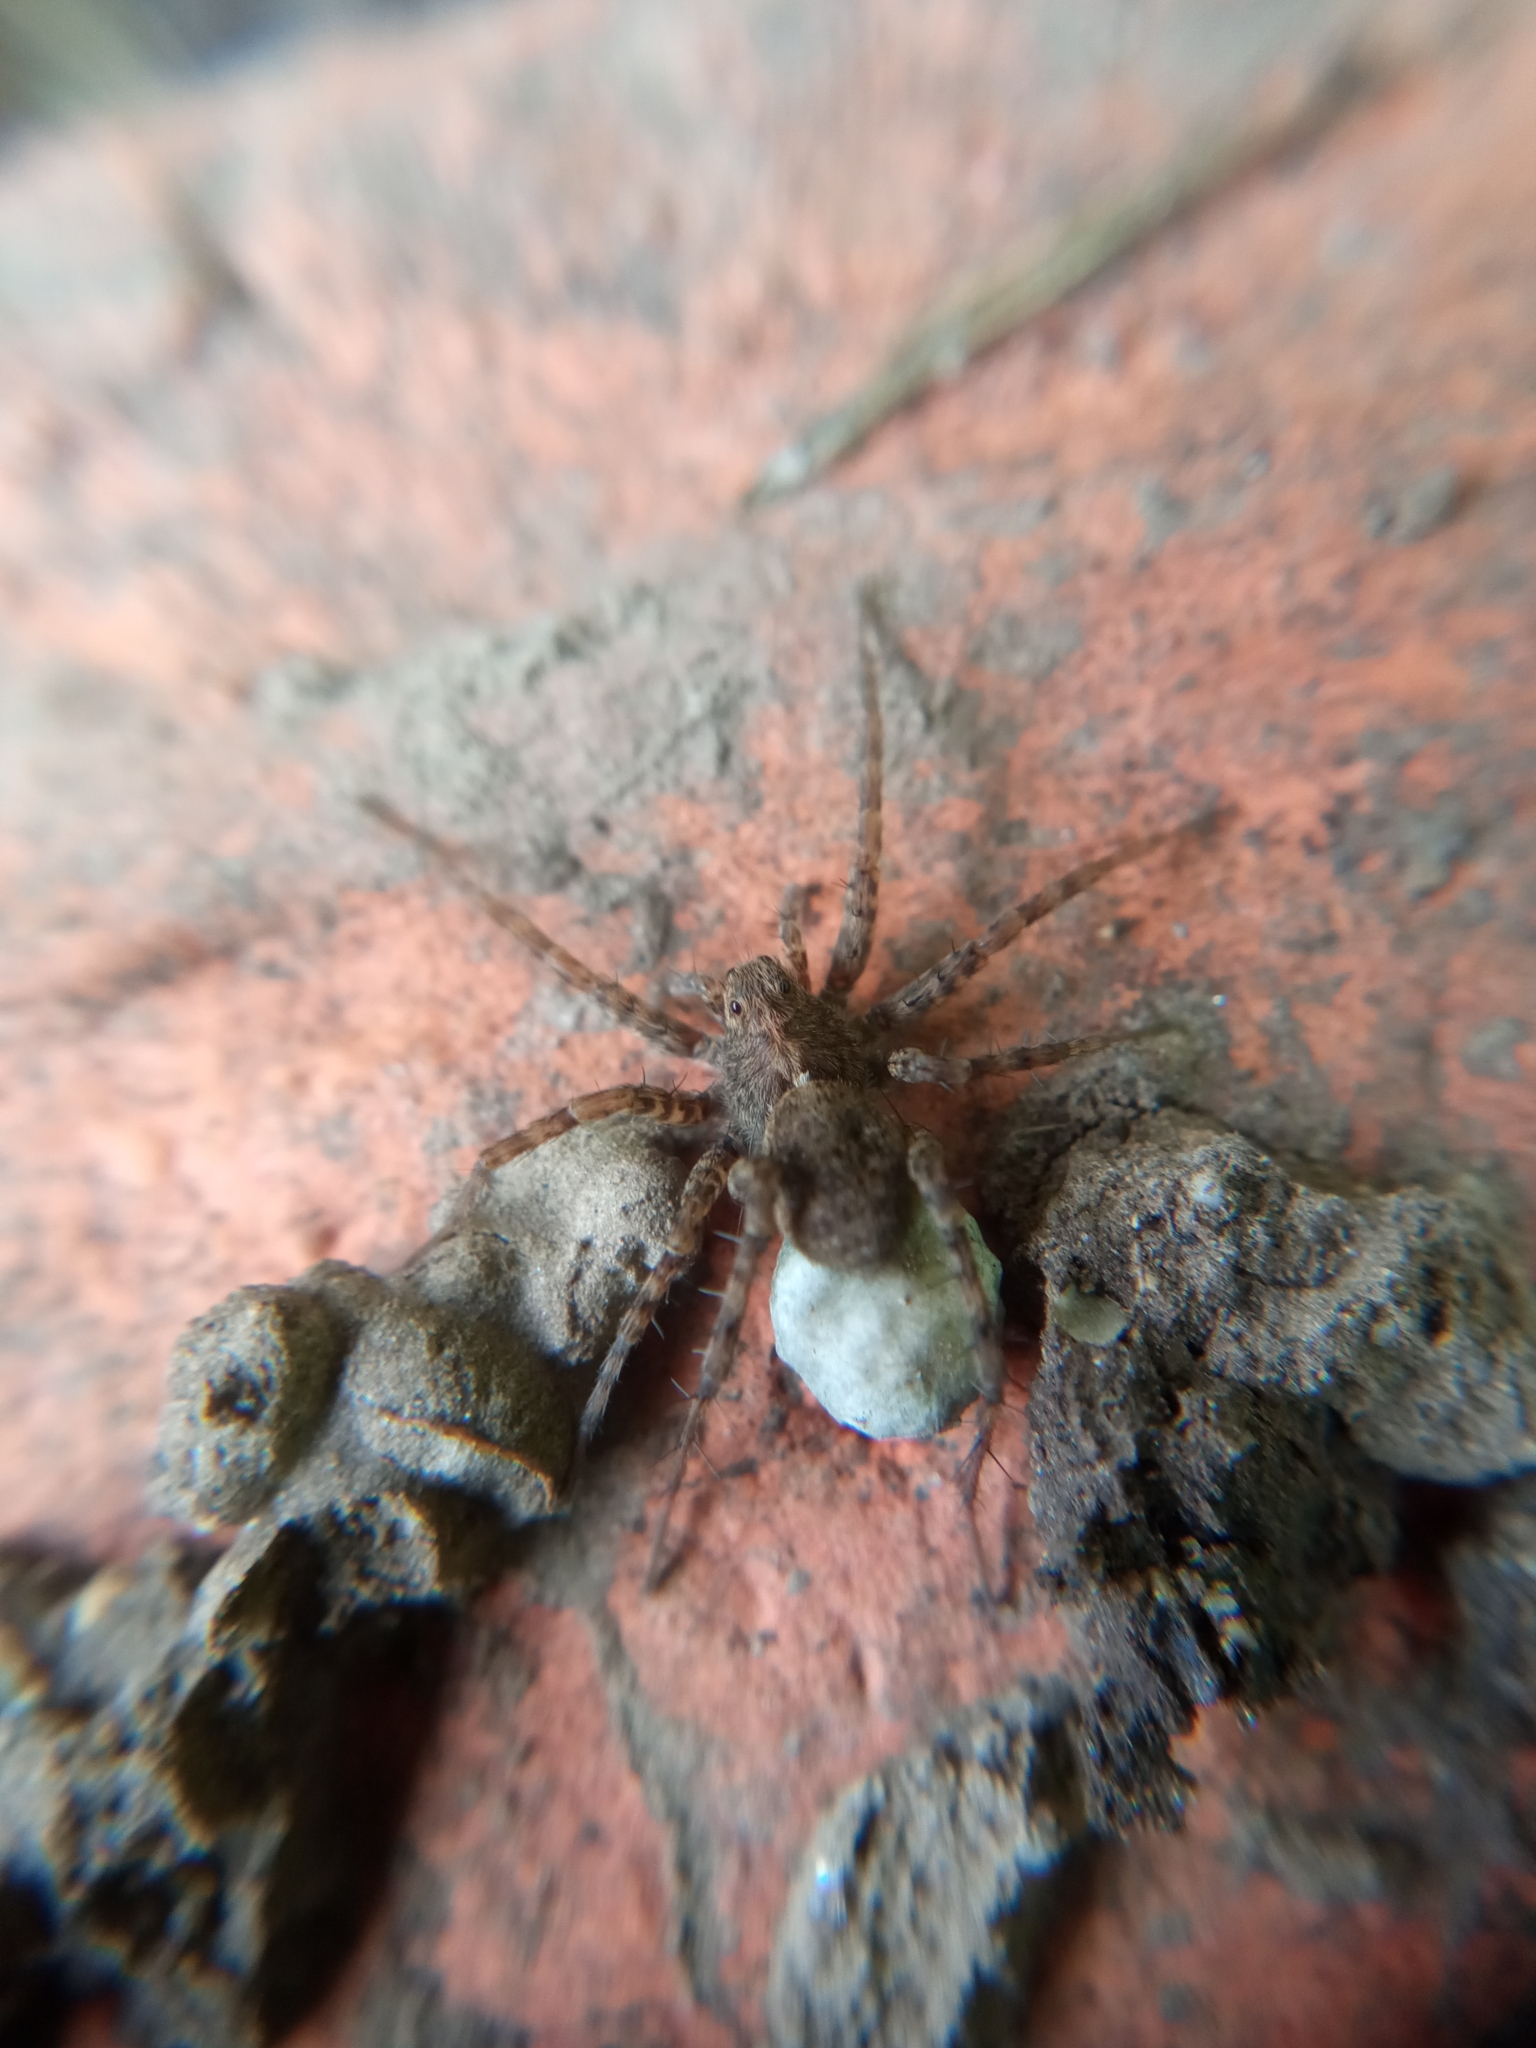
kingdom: Animalia
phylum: Arthropoda
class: Arachnida
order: Araneae
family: Lycosidae
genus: Pardosa
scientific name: Pardosa
